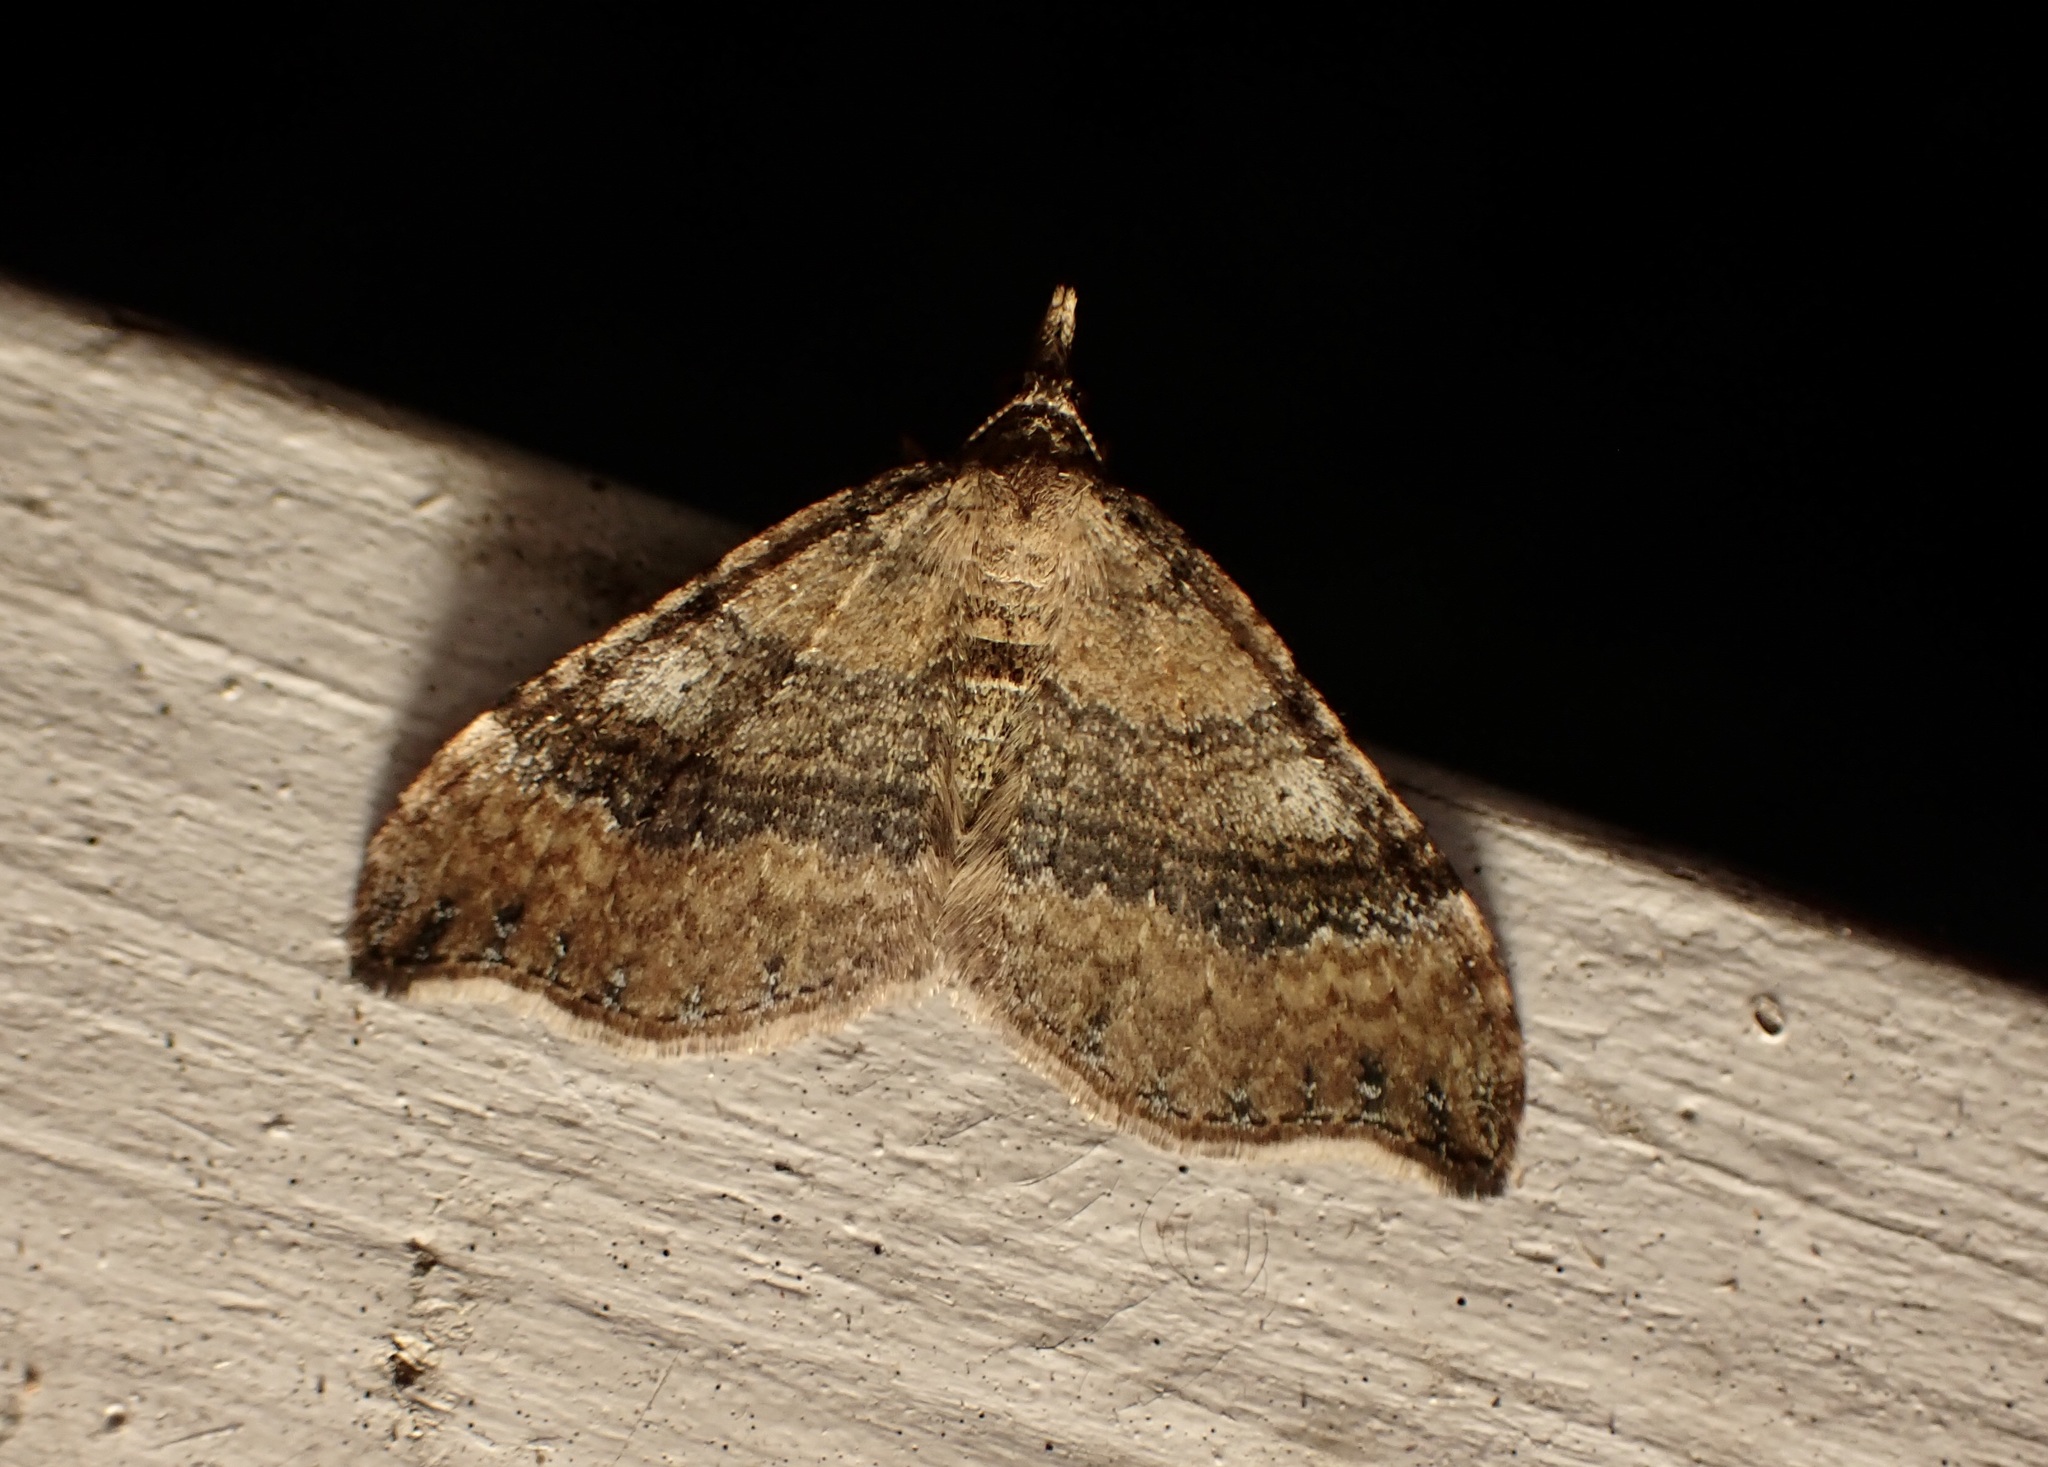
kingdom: Animalia
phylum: Arthropoda
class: Insecta
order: Lepidoptera
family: Geometridae
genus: Homodotis
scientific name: Homodotis megaspilata
